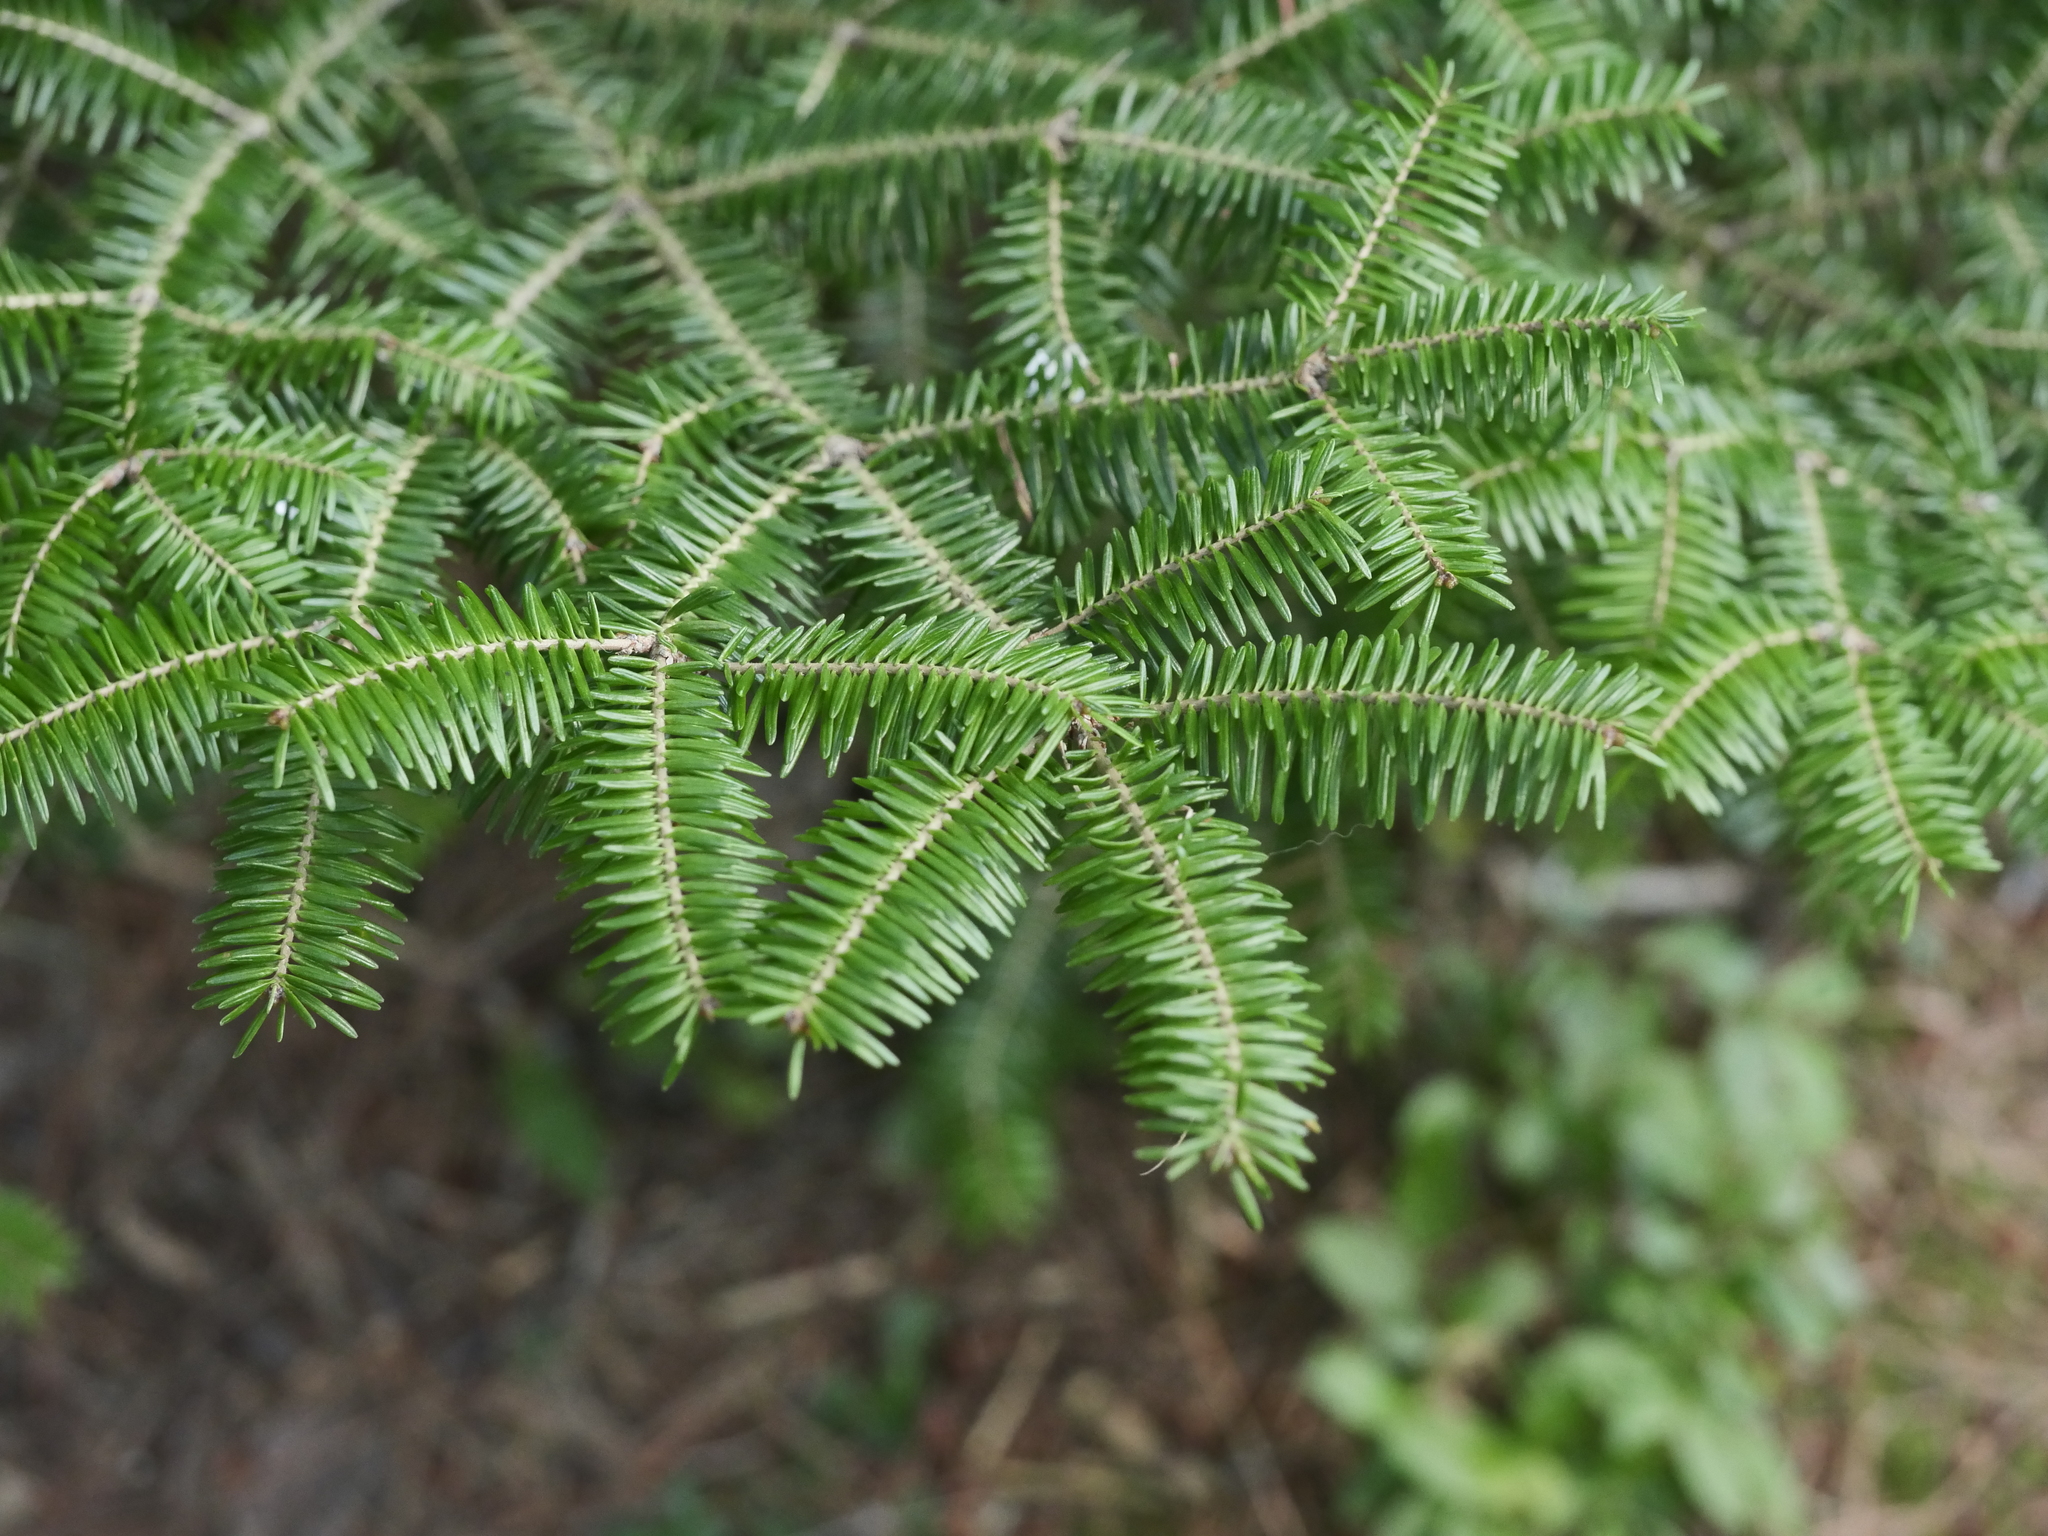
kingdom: Plantae
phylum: Tracheophyta
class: Pinopsida
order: Pinales
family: Pinaceae
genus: Abies
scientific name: Abies balsamea
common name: Balsam fir
